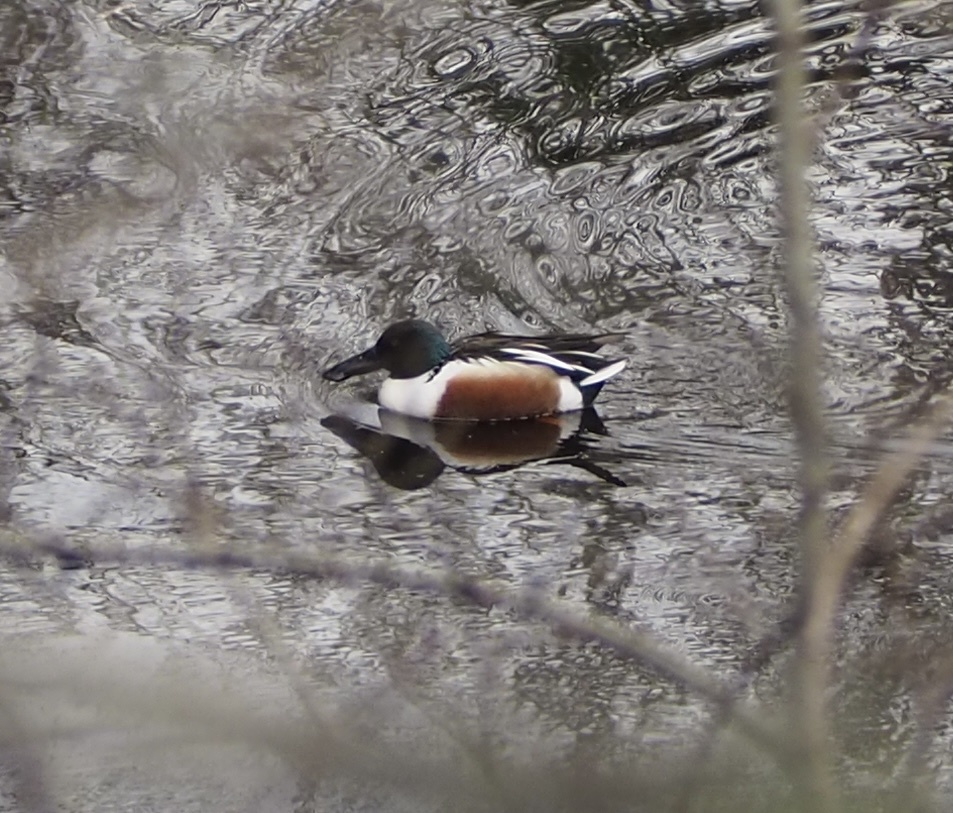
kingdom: Animalia
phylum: Chordata
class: Aves
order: Anseriformes
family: Anatidae
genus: Spatula
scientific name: Spatula clypeata
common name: Northern shoveler
